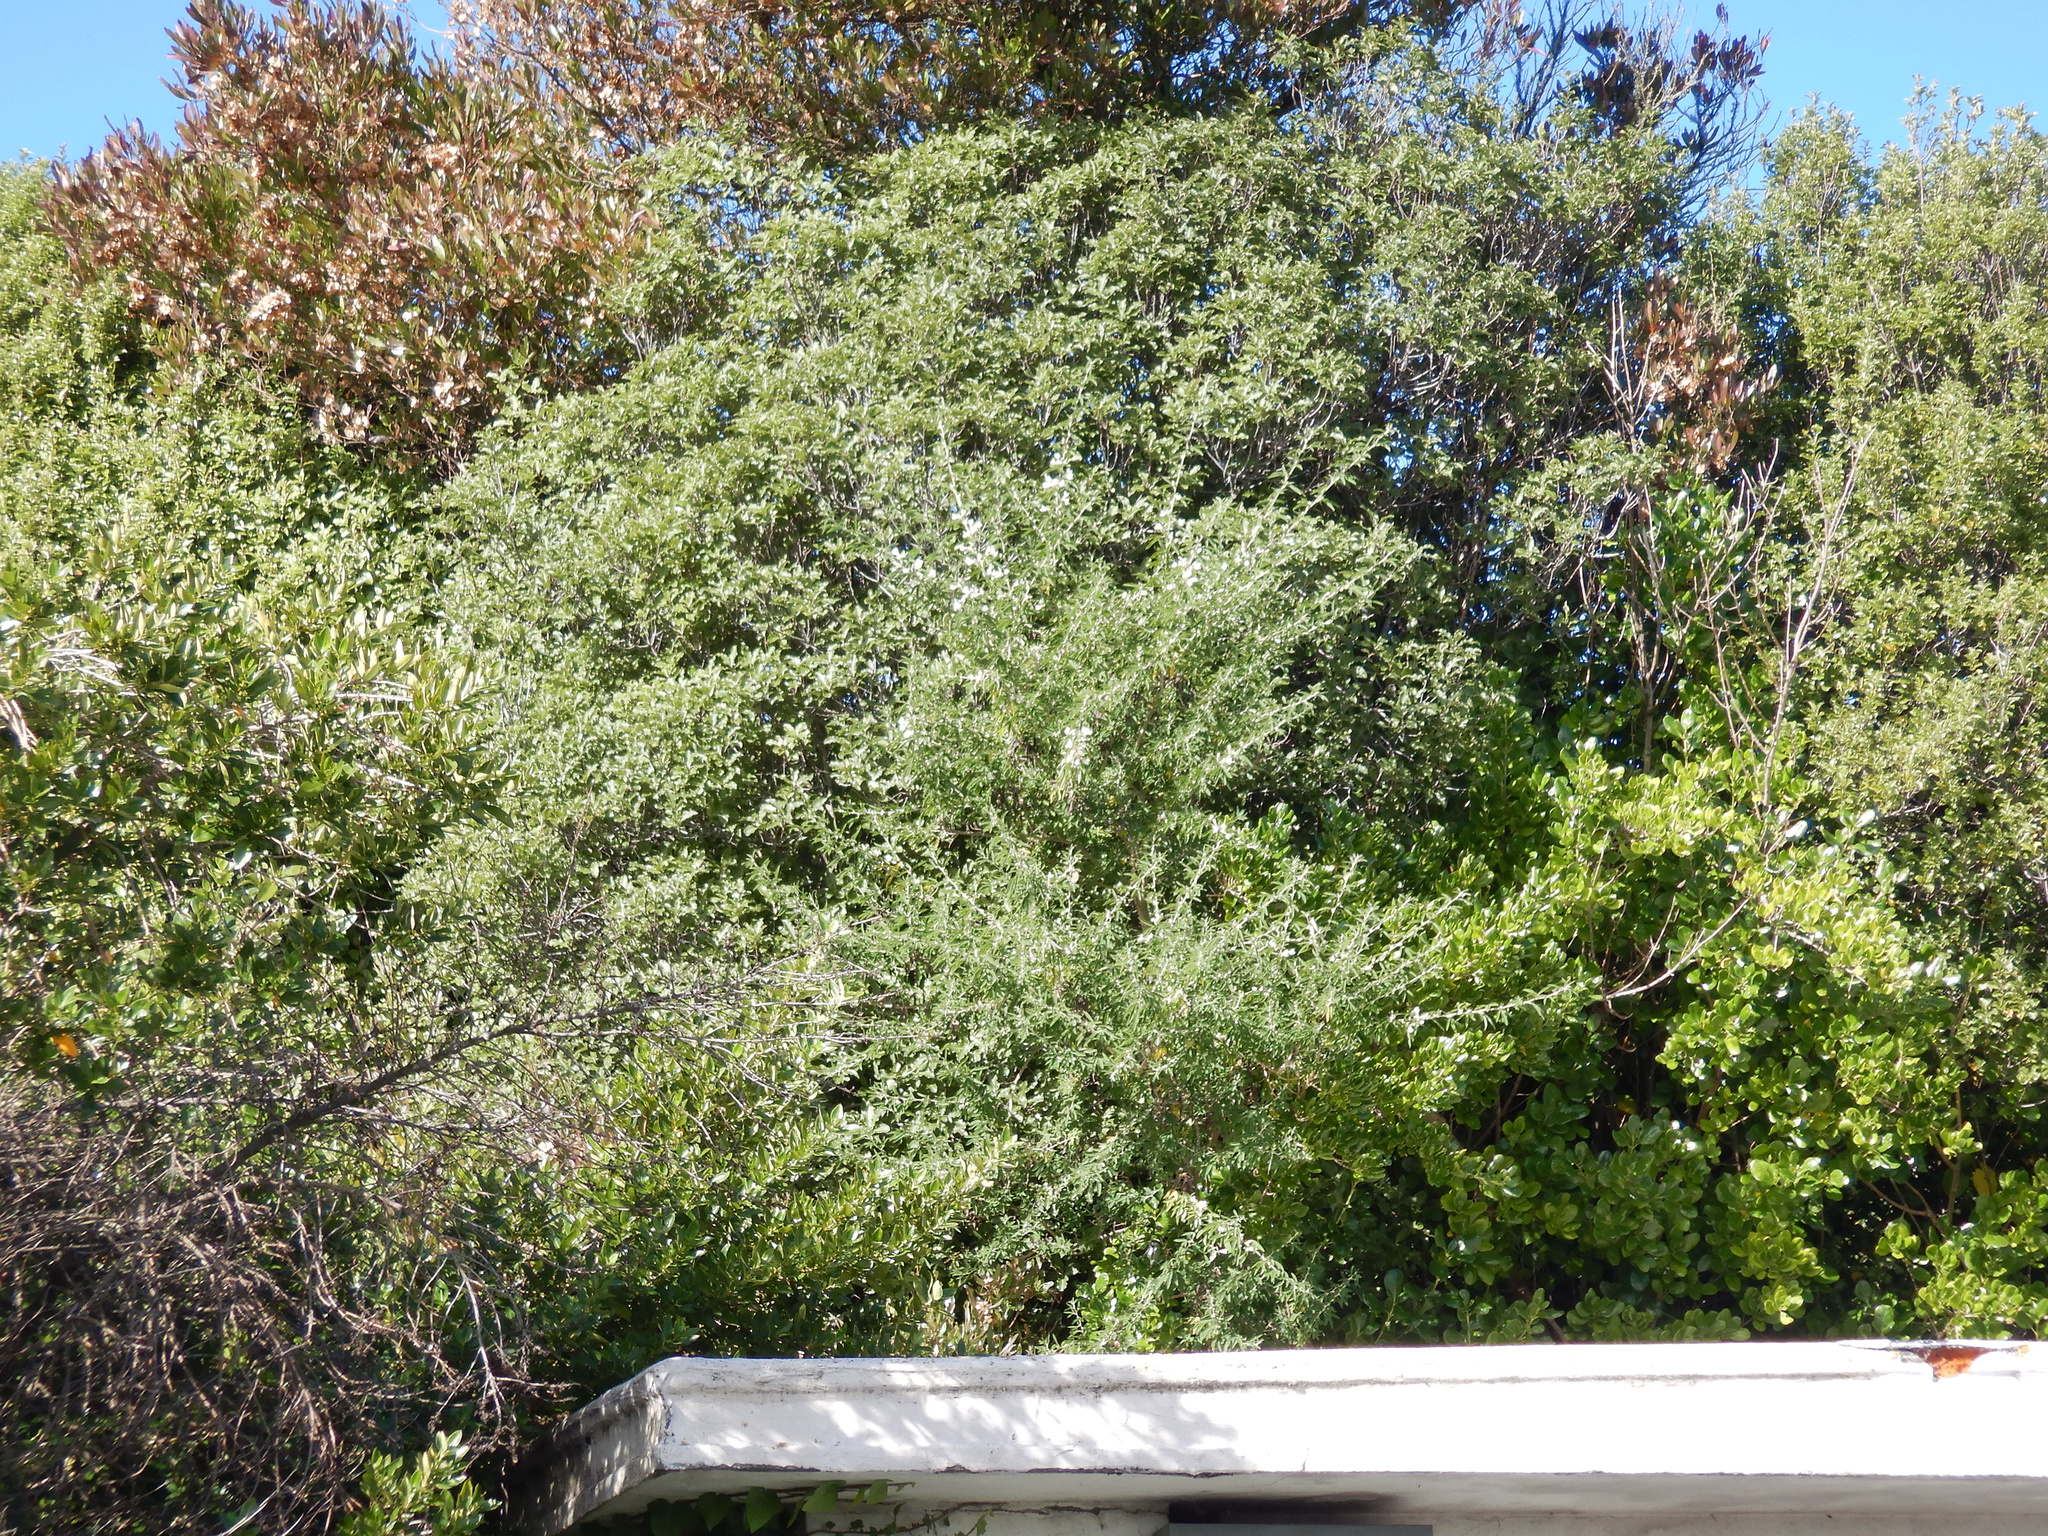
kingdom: Plantae
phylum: Tracheophyta
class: Magnoliopsida
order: Fabales
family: Fabaceae
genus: Chamaecytisus
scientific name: Chamaecytisus prolifer
